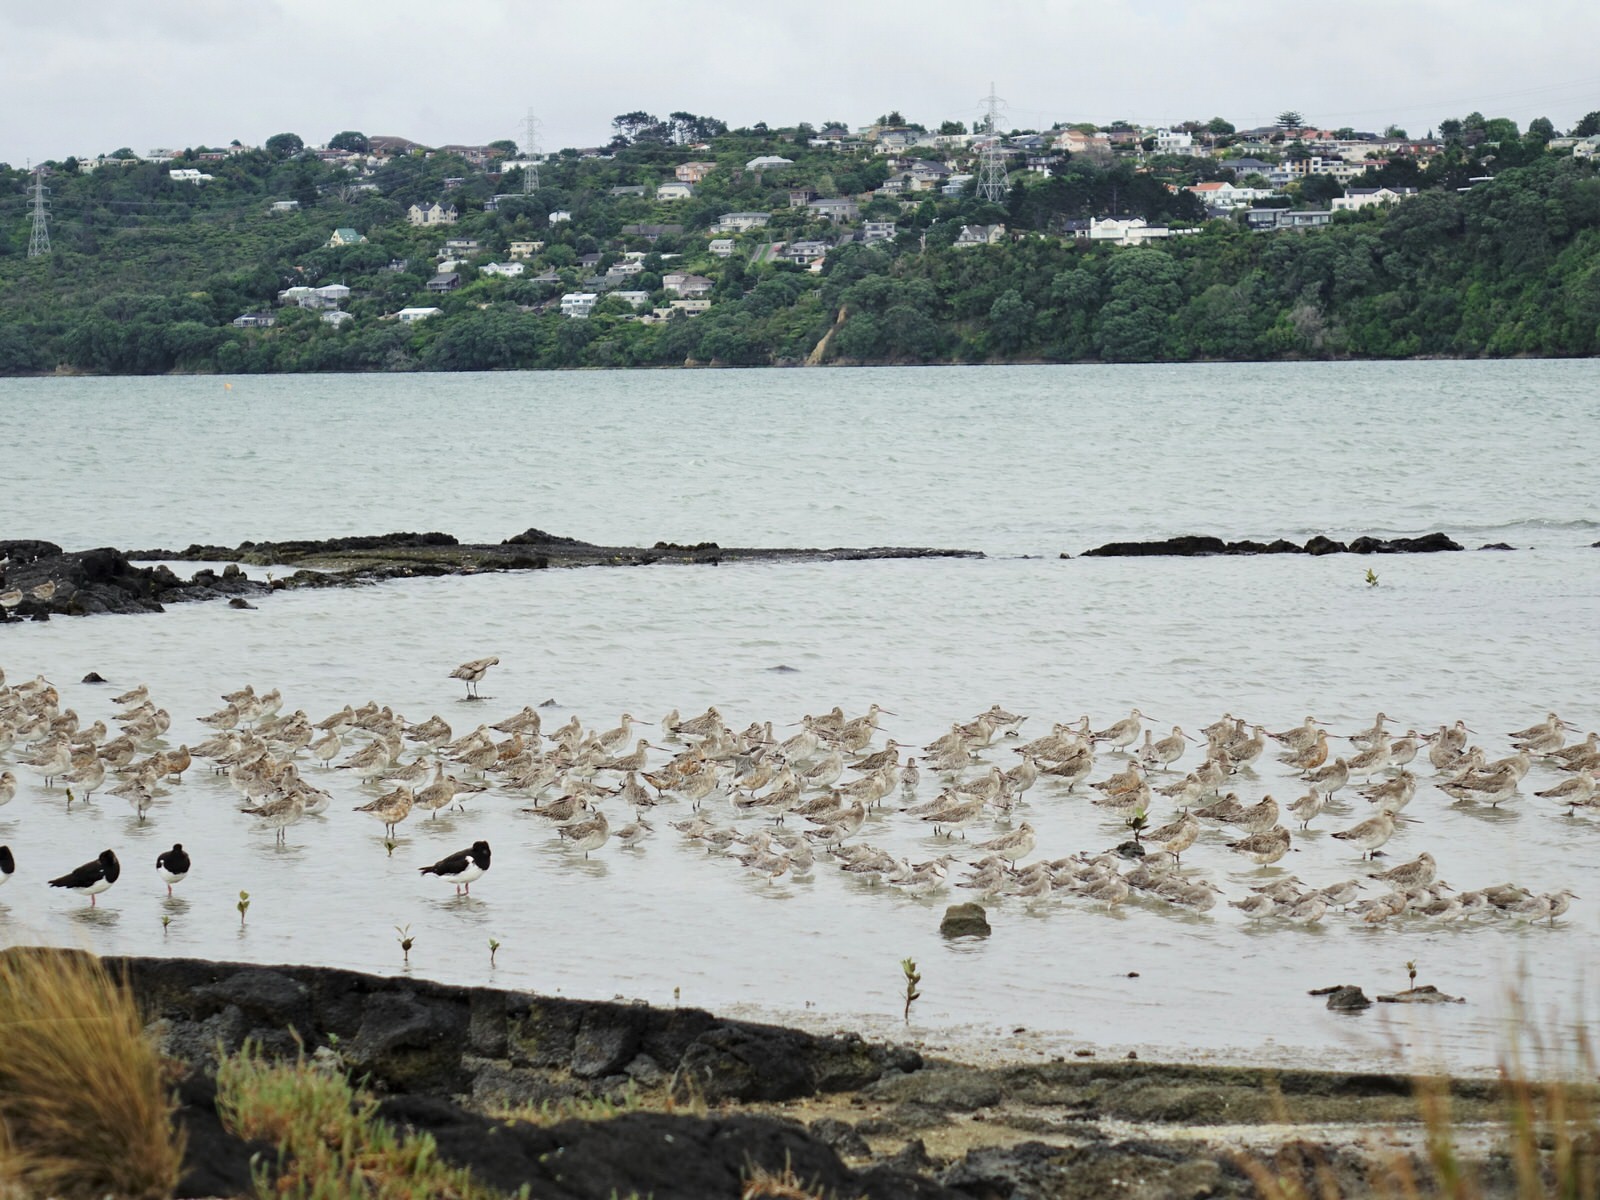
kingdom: Animalia
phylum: Chordata
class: Aves
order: Charadriiformes
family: Scolopacidae
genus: Calidris
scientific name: Calidris canutus
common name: Red knot
